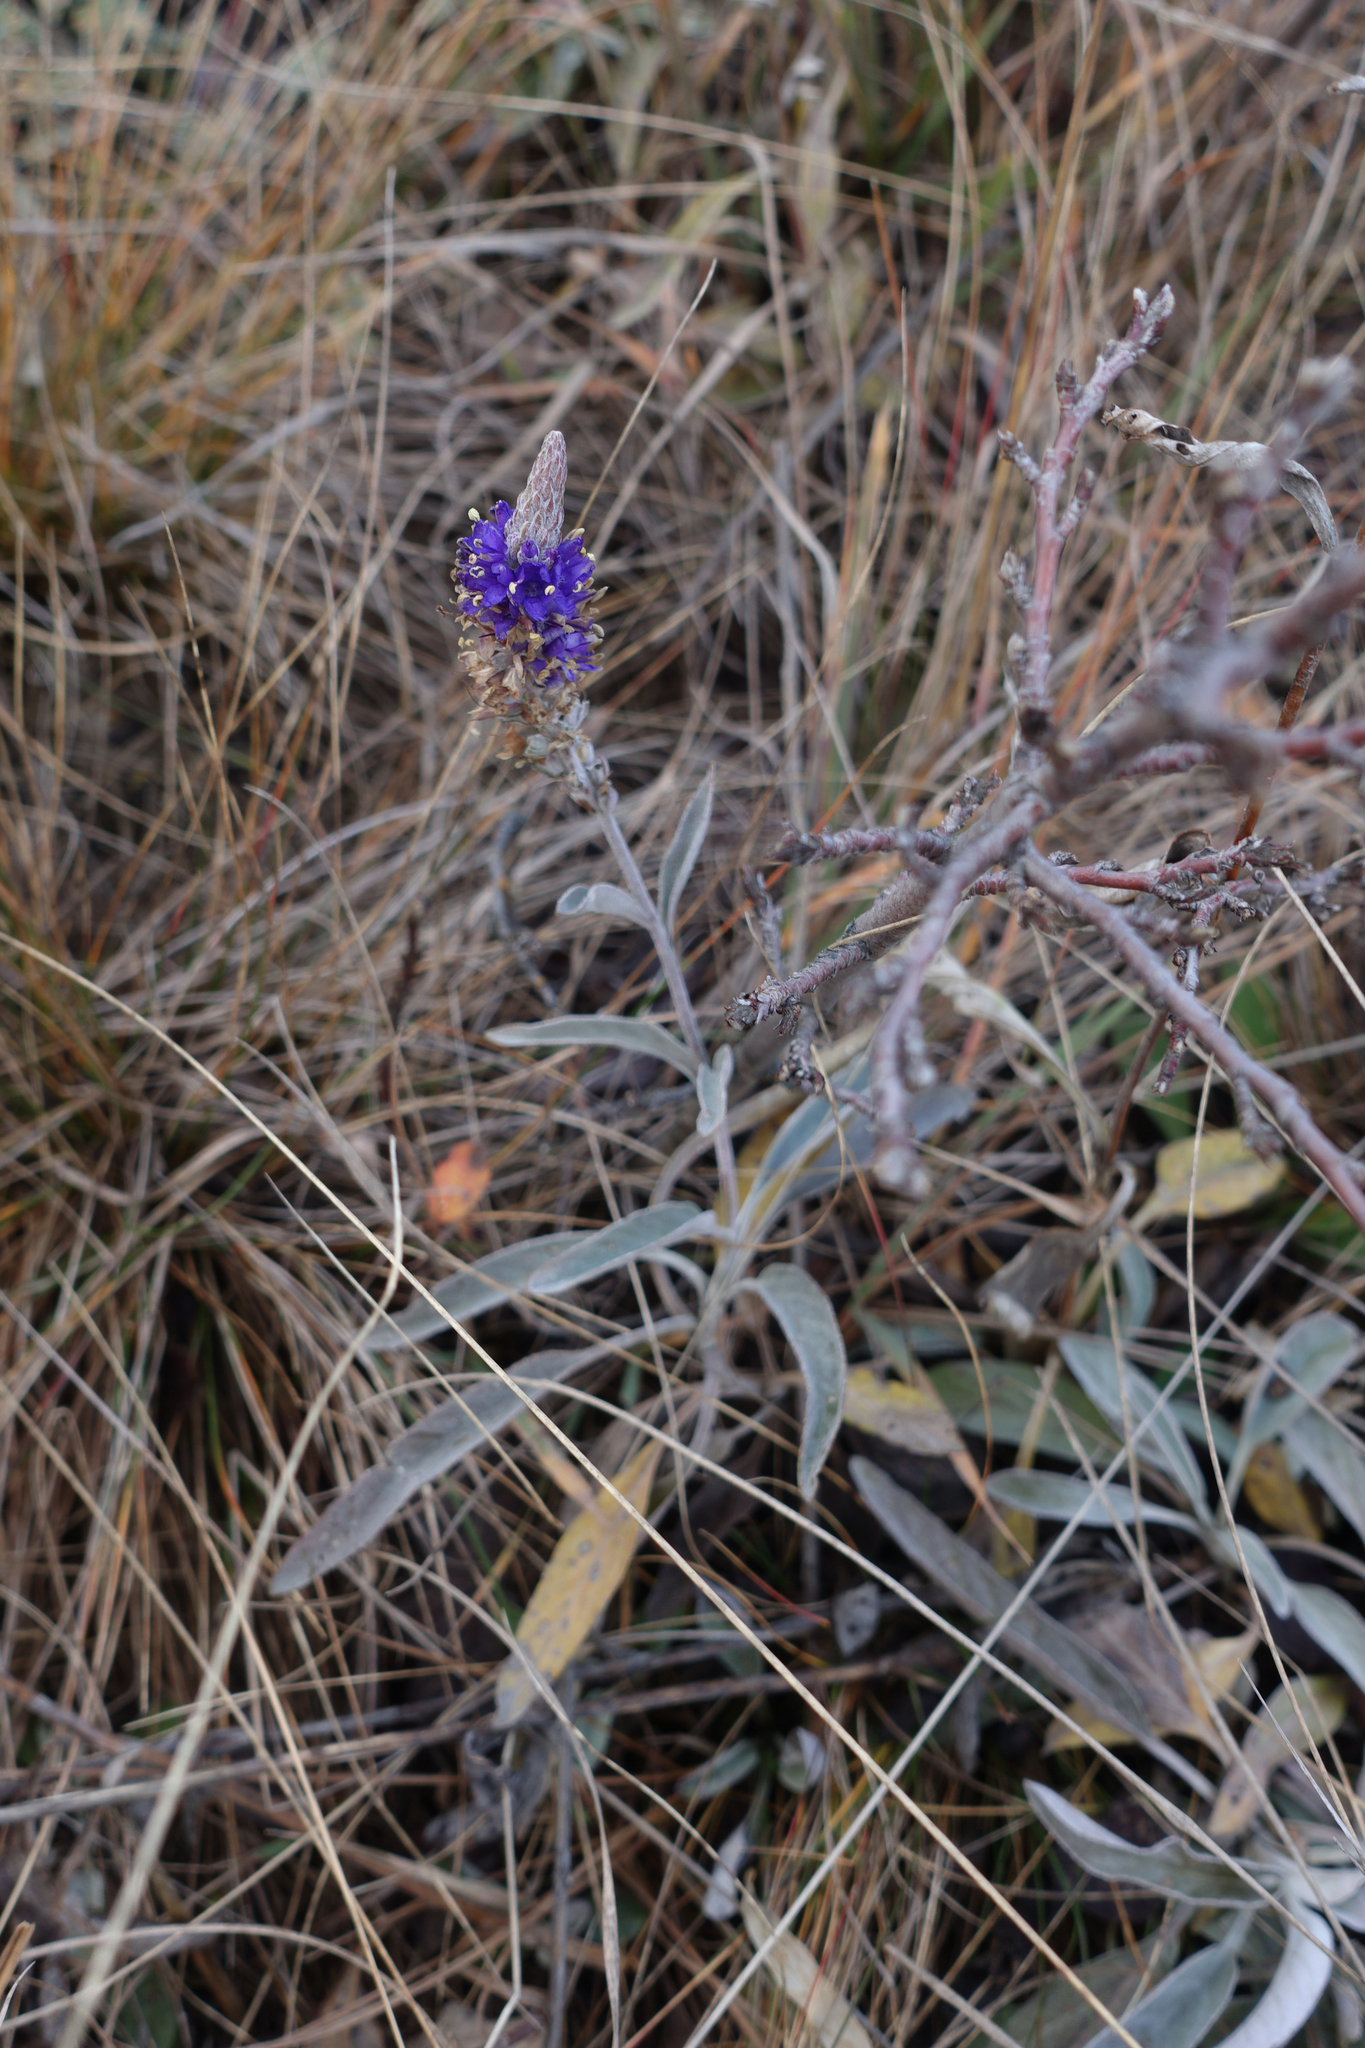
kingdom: Plantae
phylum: Tracheophyta
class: Magnoliopsida
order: Lamiales
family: Plantaginaceae
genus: Veronica
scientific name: Veronica incana
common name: Silver speedwell
